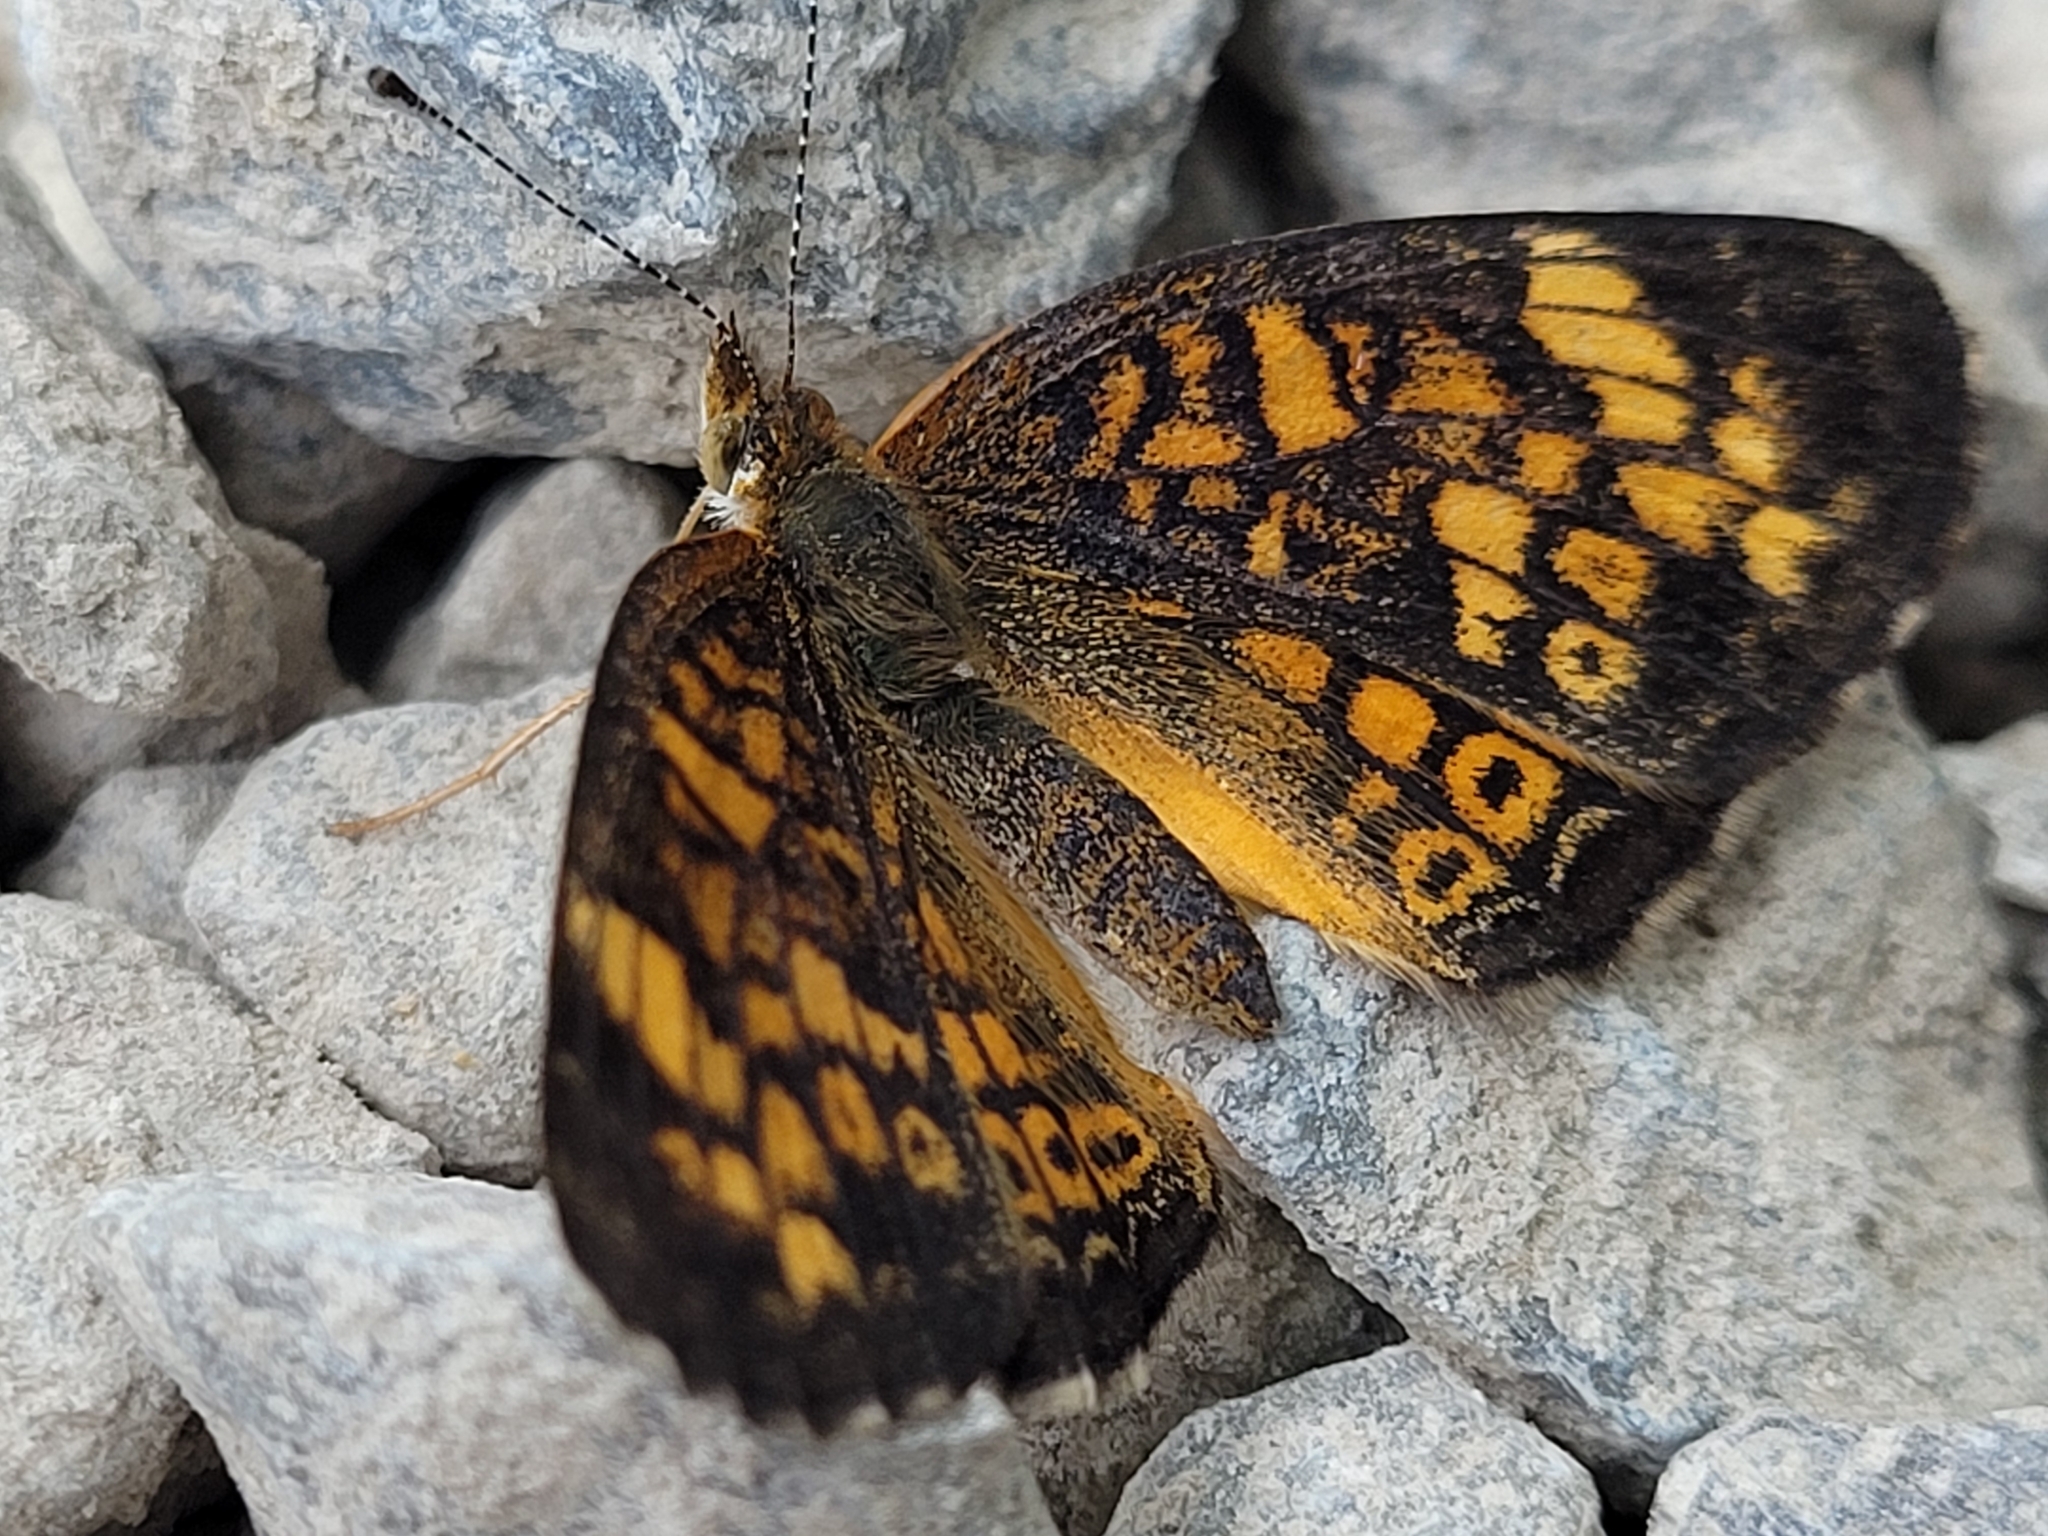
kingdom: Animalia
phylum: Arthropoda
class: Insecta
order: Lepidoptera
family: Nymphalidae
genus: Phyciodes
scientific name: Phyciodes tharos
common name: Pearl crescent
